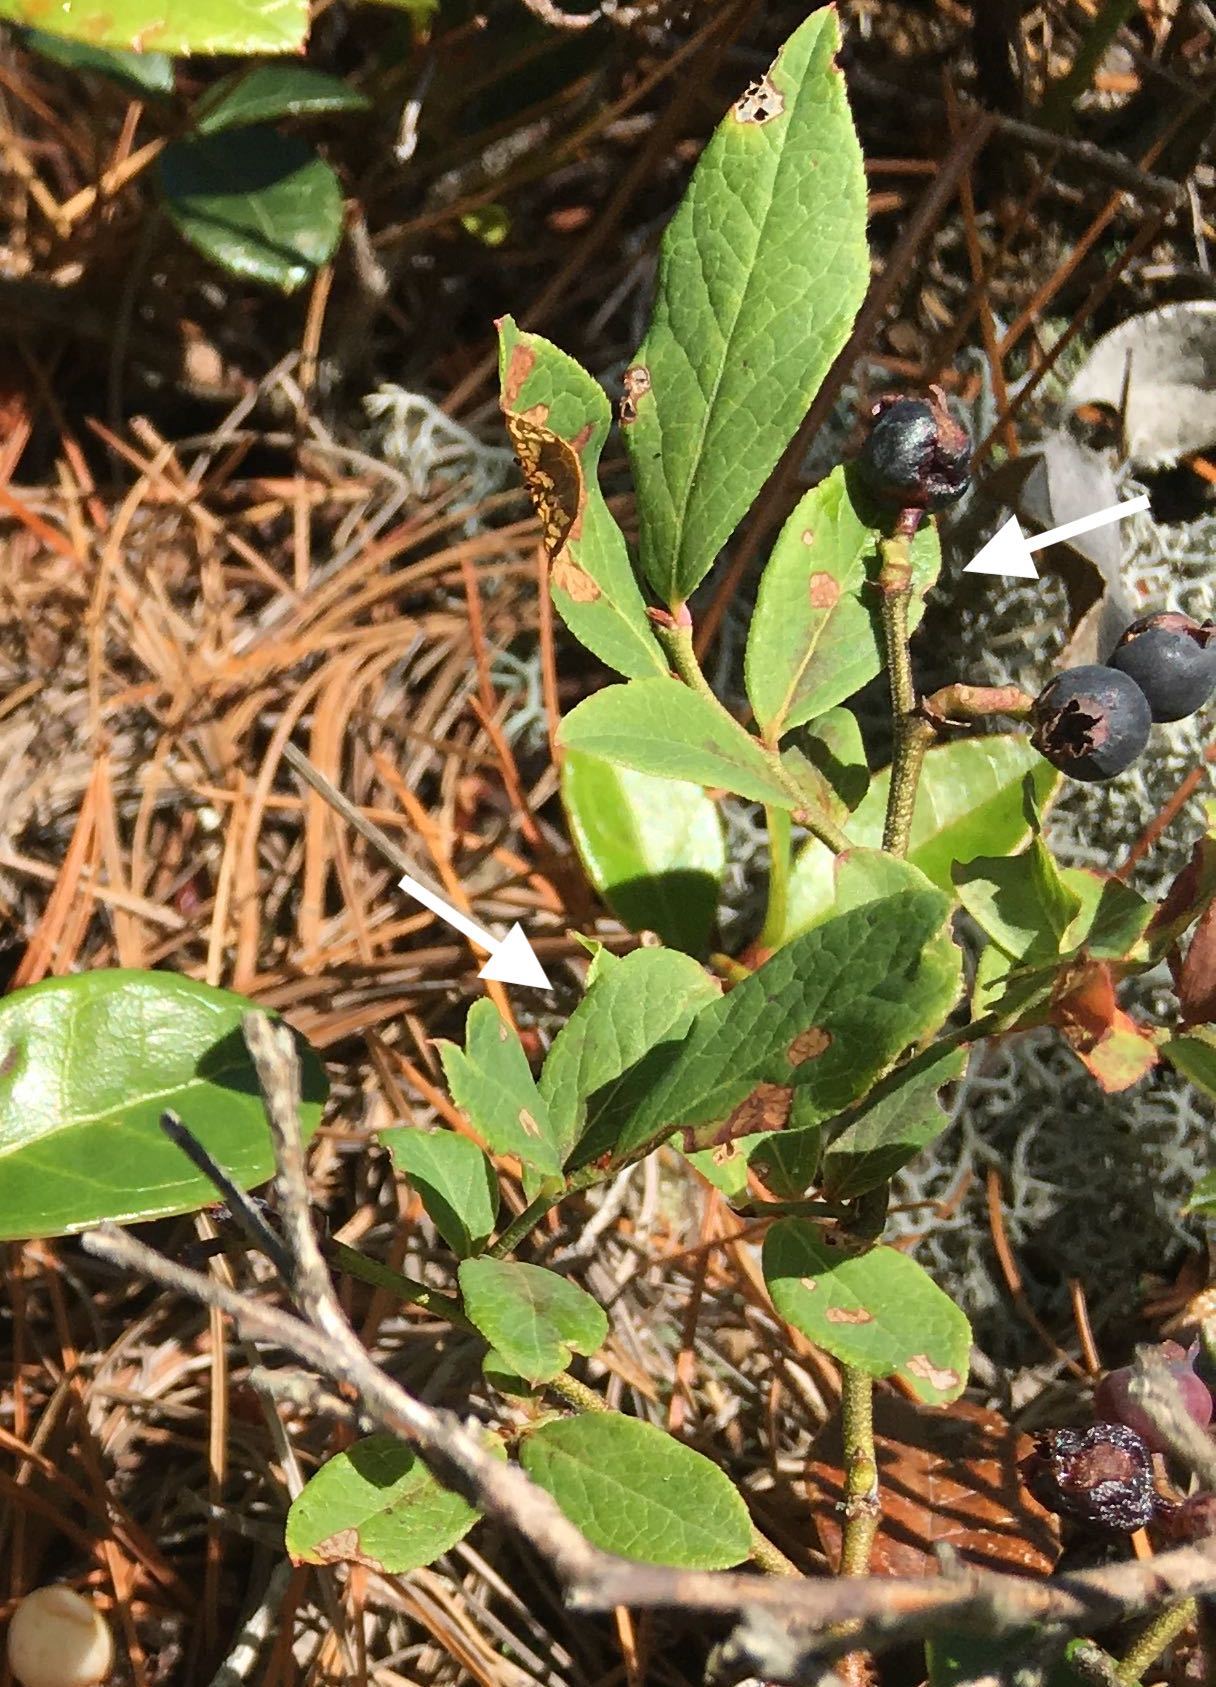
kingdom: Plantae
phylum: Tracheophyta
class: Magnoliopsida
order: Ericales
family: Ericaceae
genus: Vaccinium
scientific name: Vaccinium angustifolium
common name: Early lowbush blueberry
